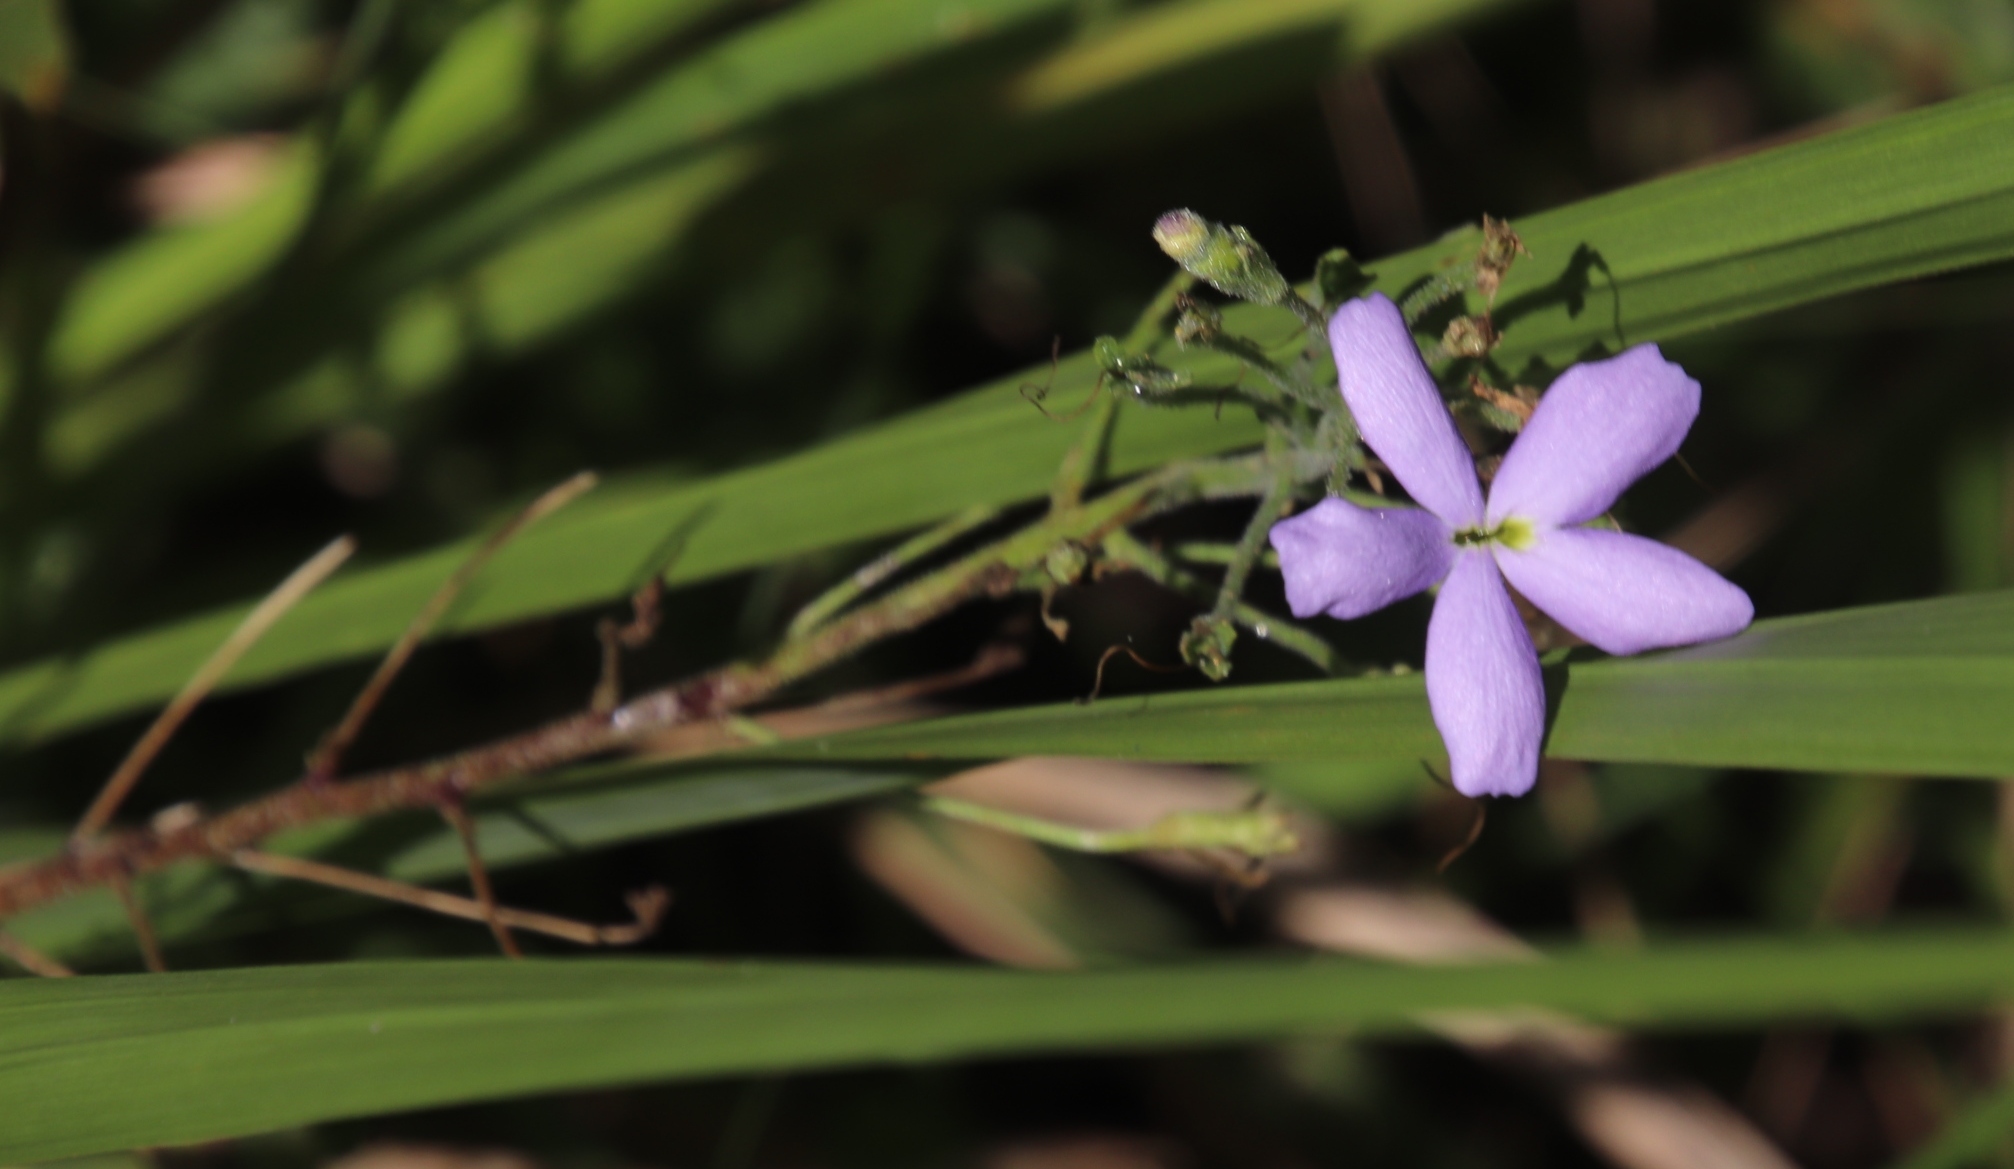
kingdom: Plantae
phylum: Tracheophyta
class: Magnoliopsida
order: Lamiales
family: Scrophulariaceae
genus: Jamesbrittenia
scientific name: Jamesbrittenia grandiflora
